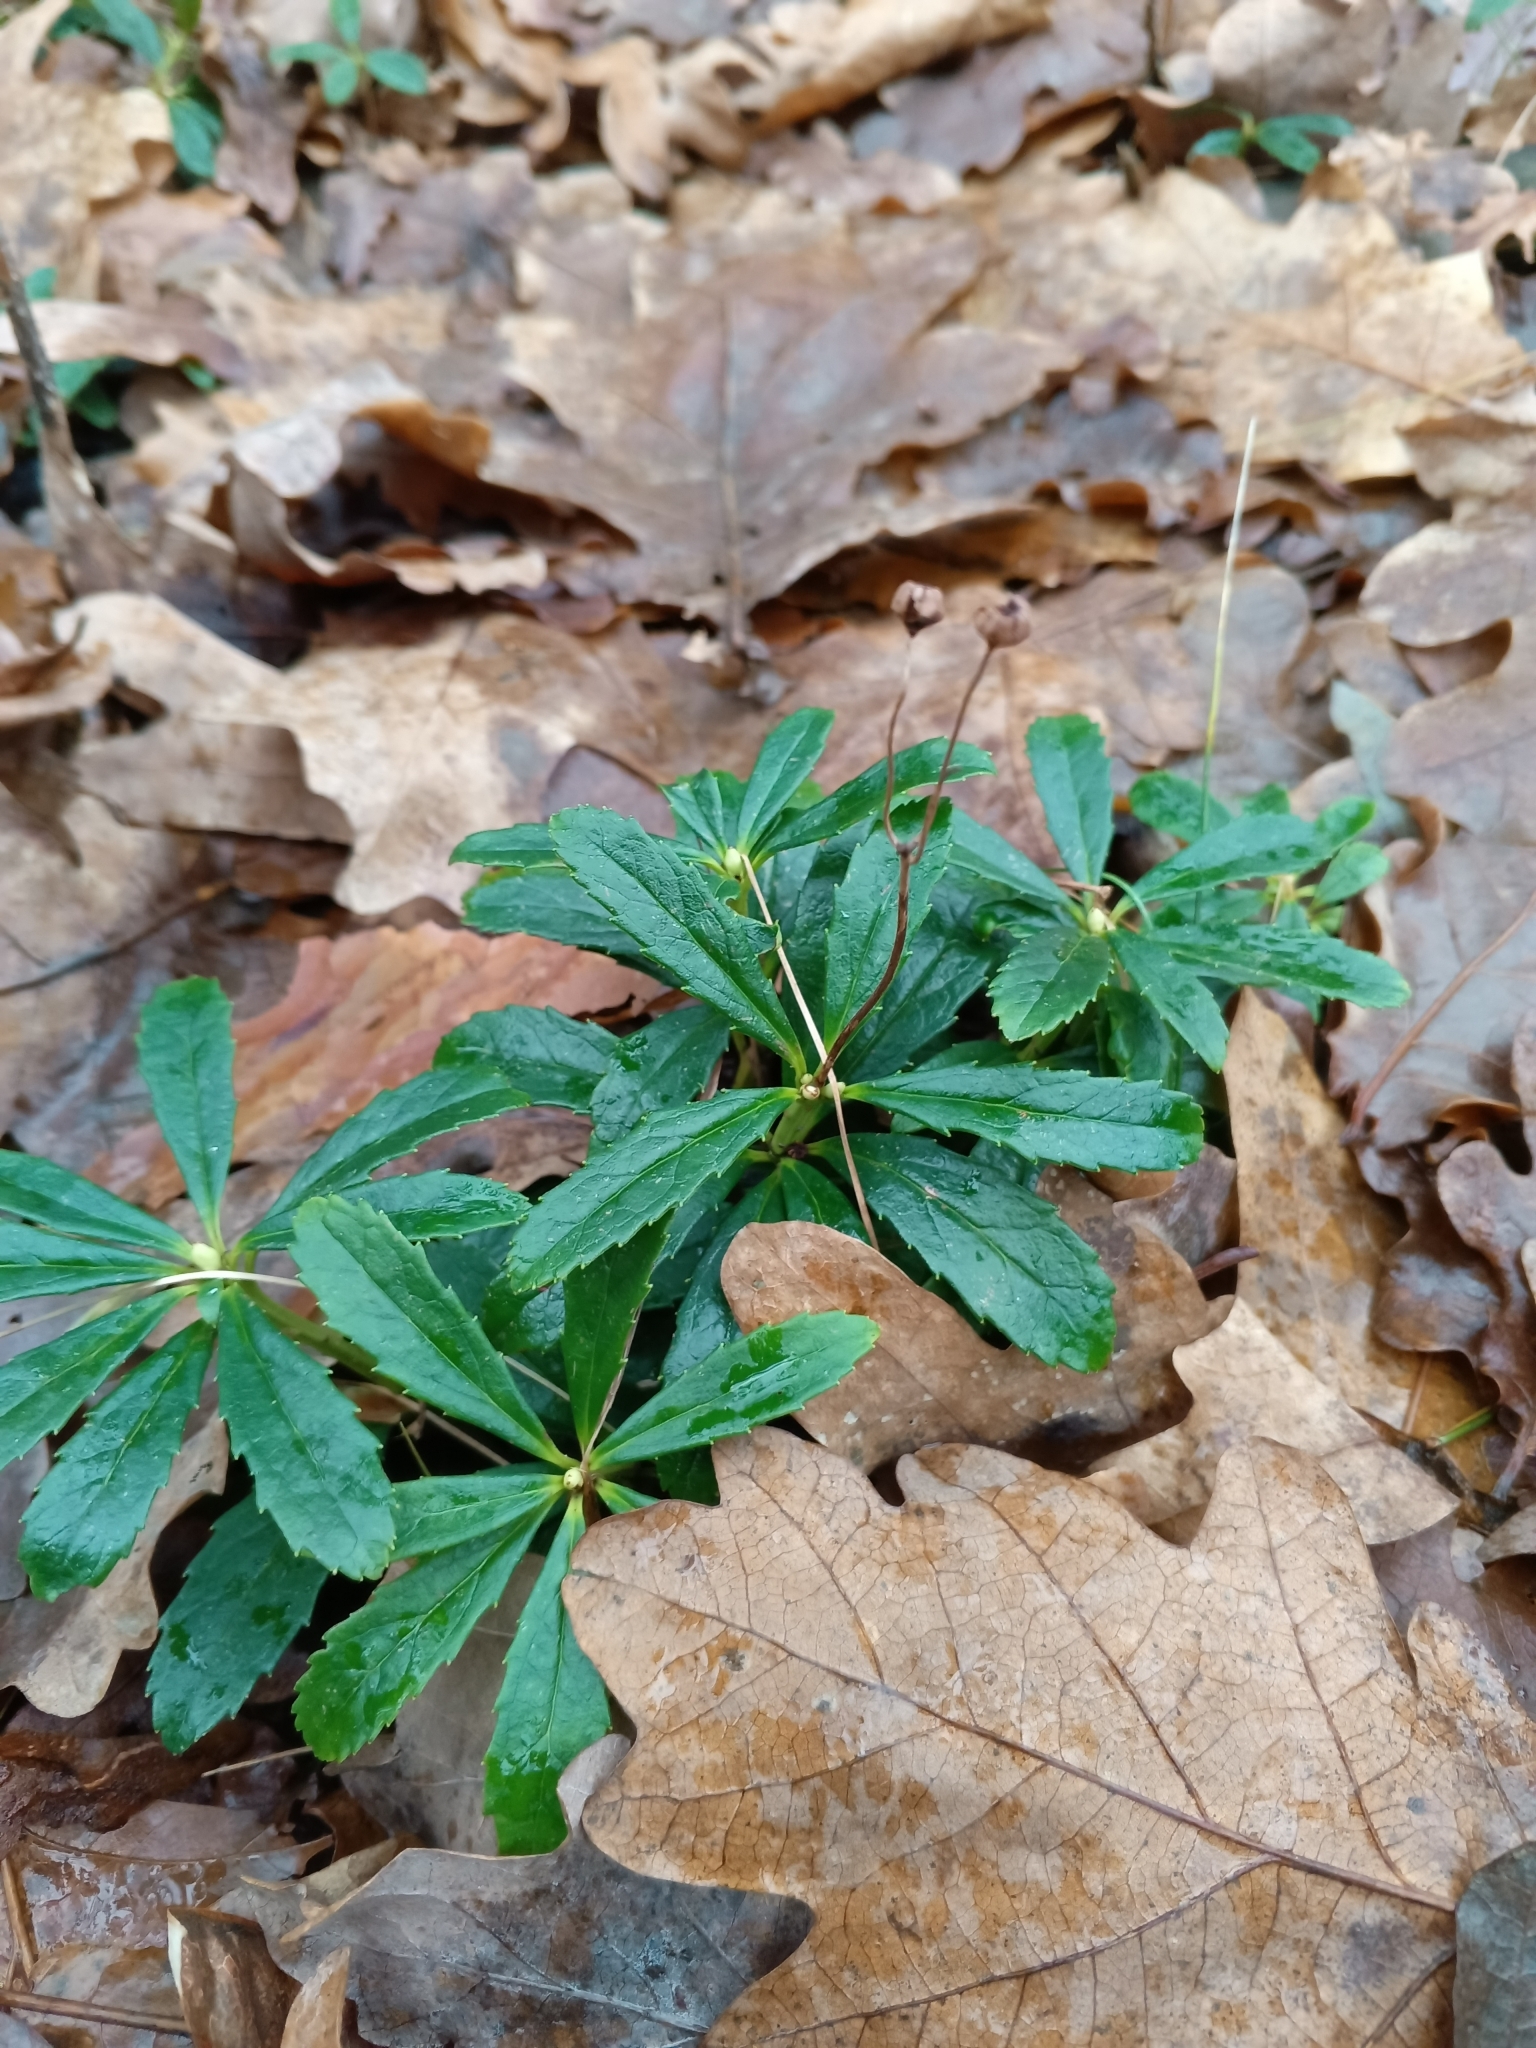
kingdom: Plantae
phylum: Tracheophyta
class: Magnoliopsida
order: Ericales
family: Ericaceae
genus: Chimaphila
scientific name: Chimaphila umbellata
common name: Pipsissewa
